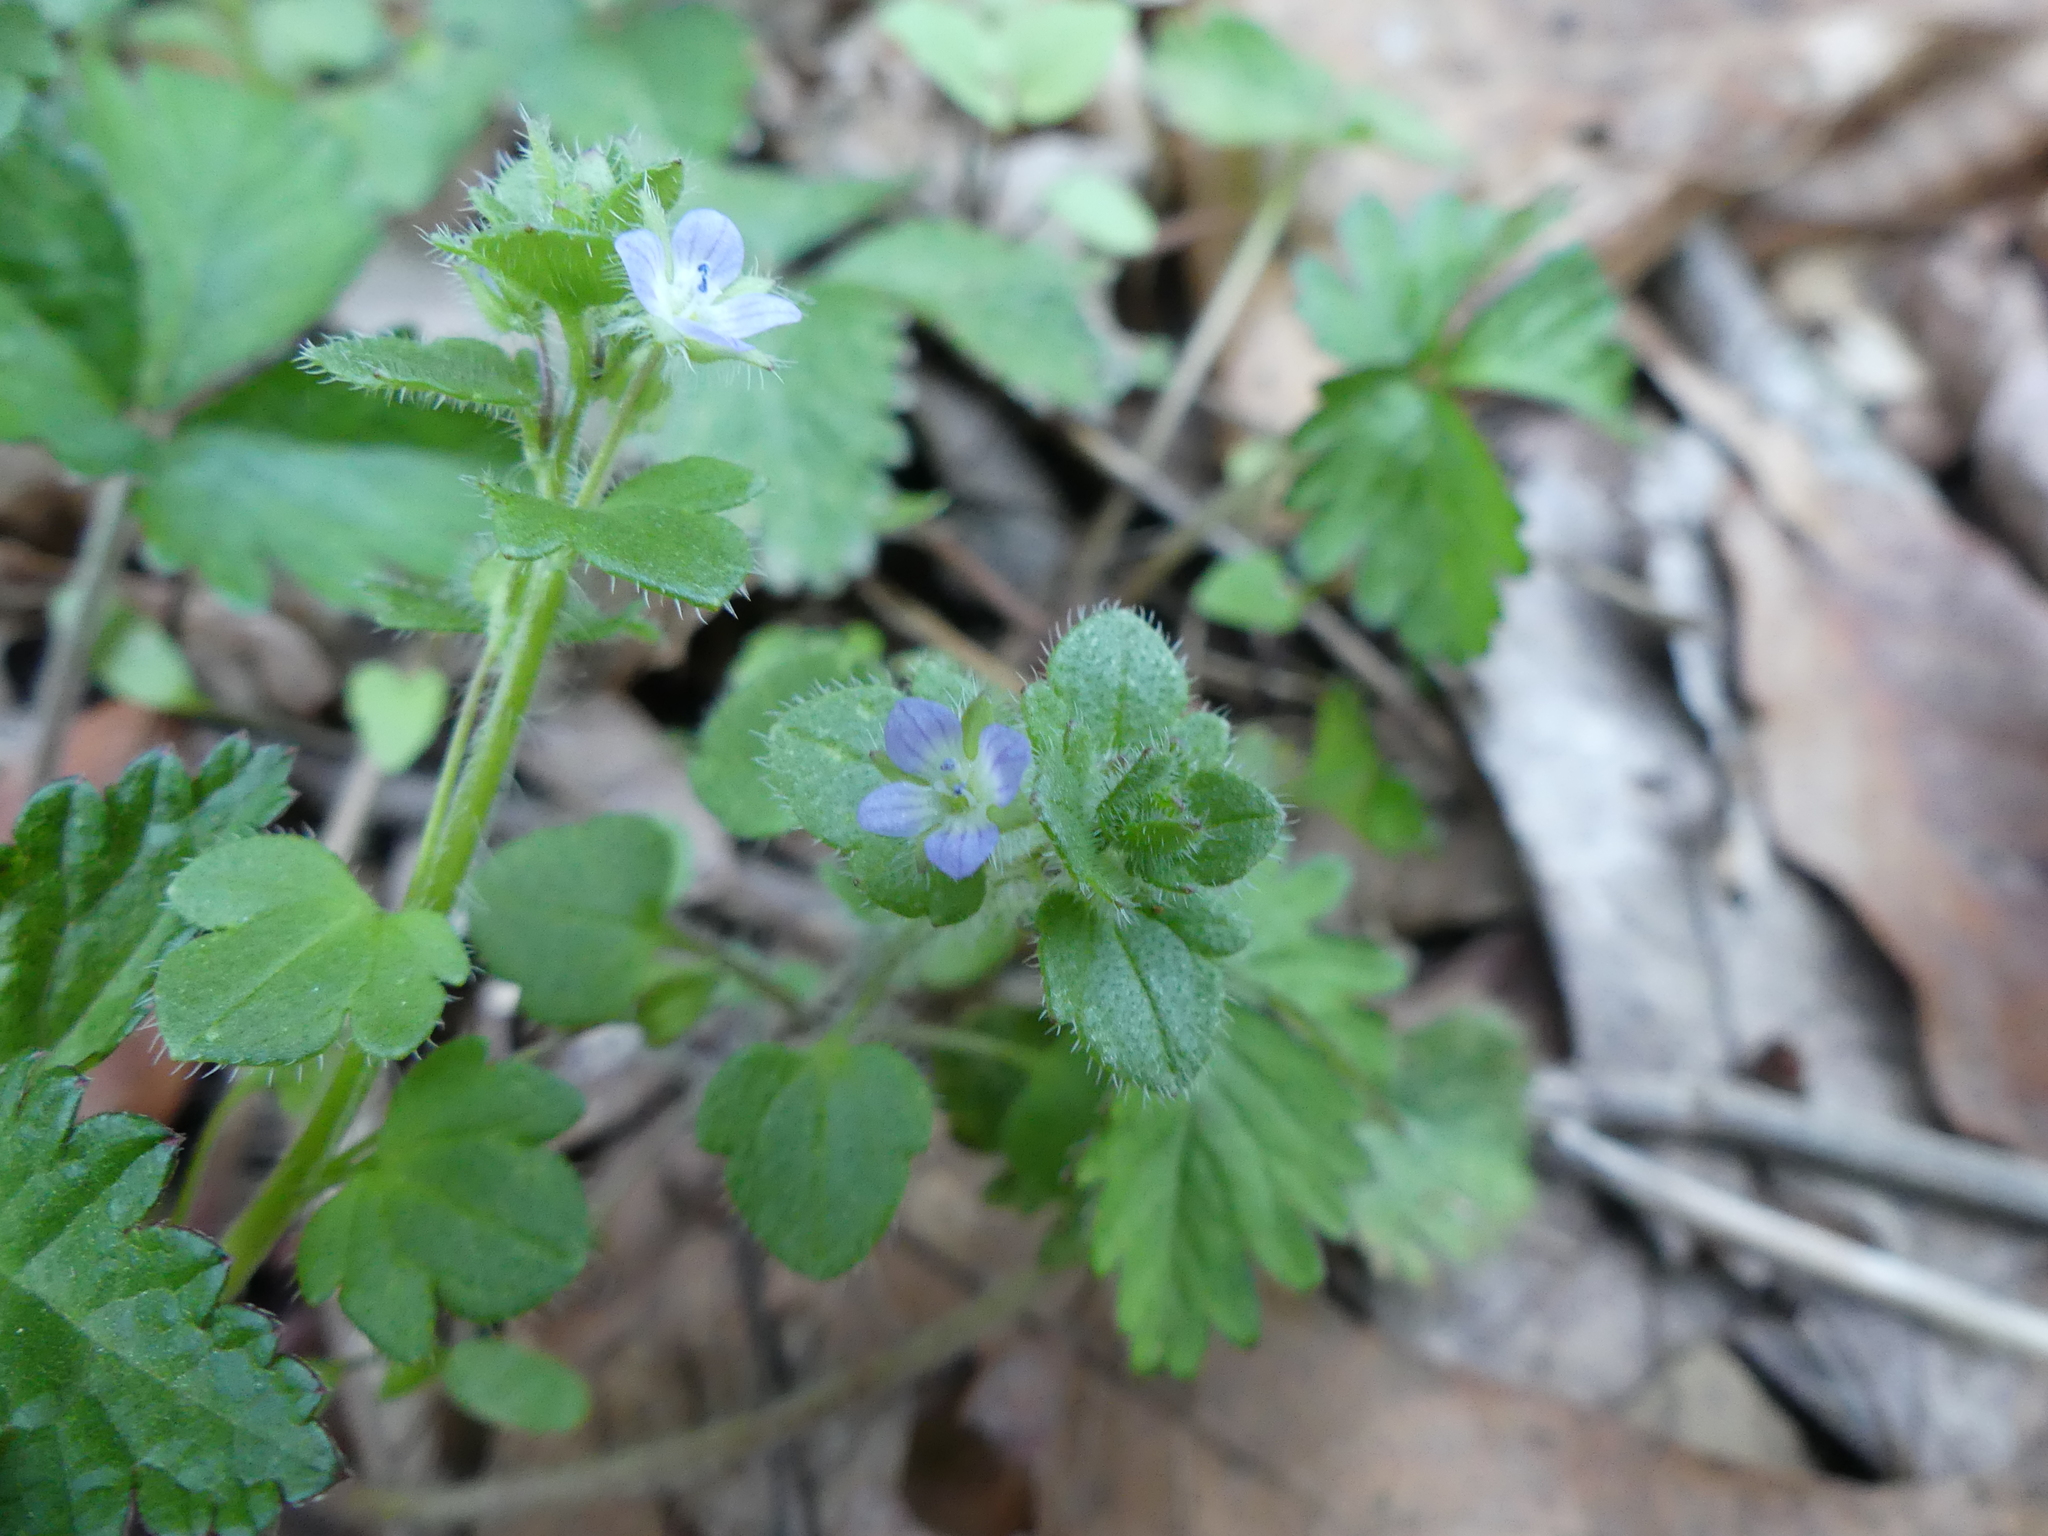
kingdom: Plantae
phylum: Tracheophyta
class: Magnoliopsida
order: Lamiales
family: Plantaginaceae
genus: Veronica
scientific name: Veronica hederifolia
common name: Ivy-leaved speedwell
